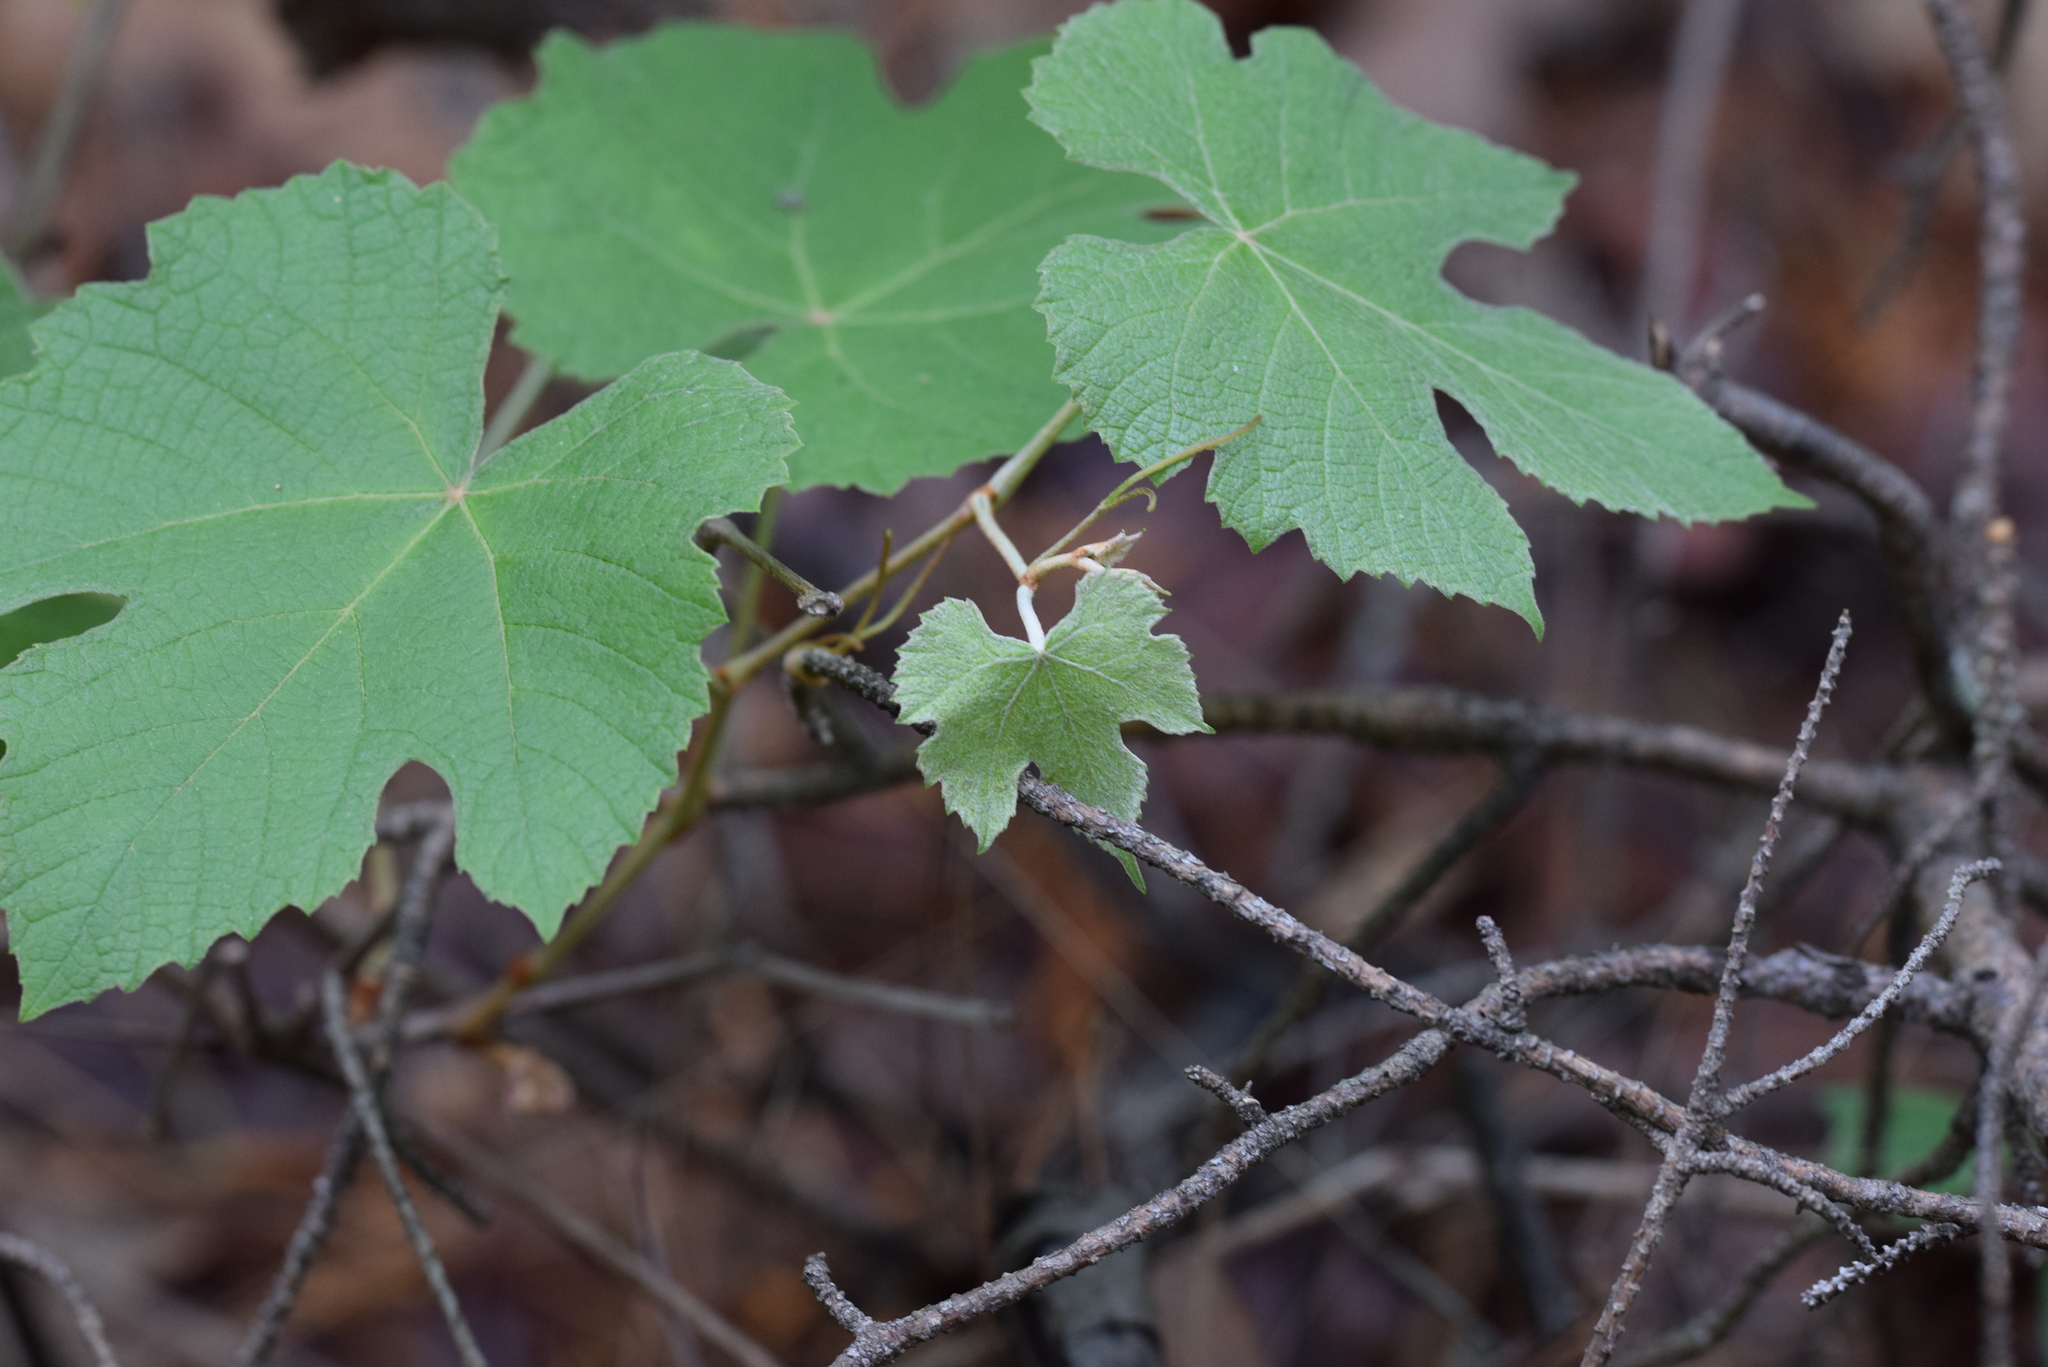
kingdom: Plantae
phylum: Tracheophyta
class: Magnoliopsida
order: Vitales
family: Vitaceae
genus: Vitis
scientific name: Vitis aestivalis
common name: Pigeon grape
